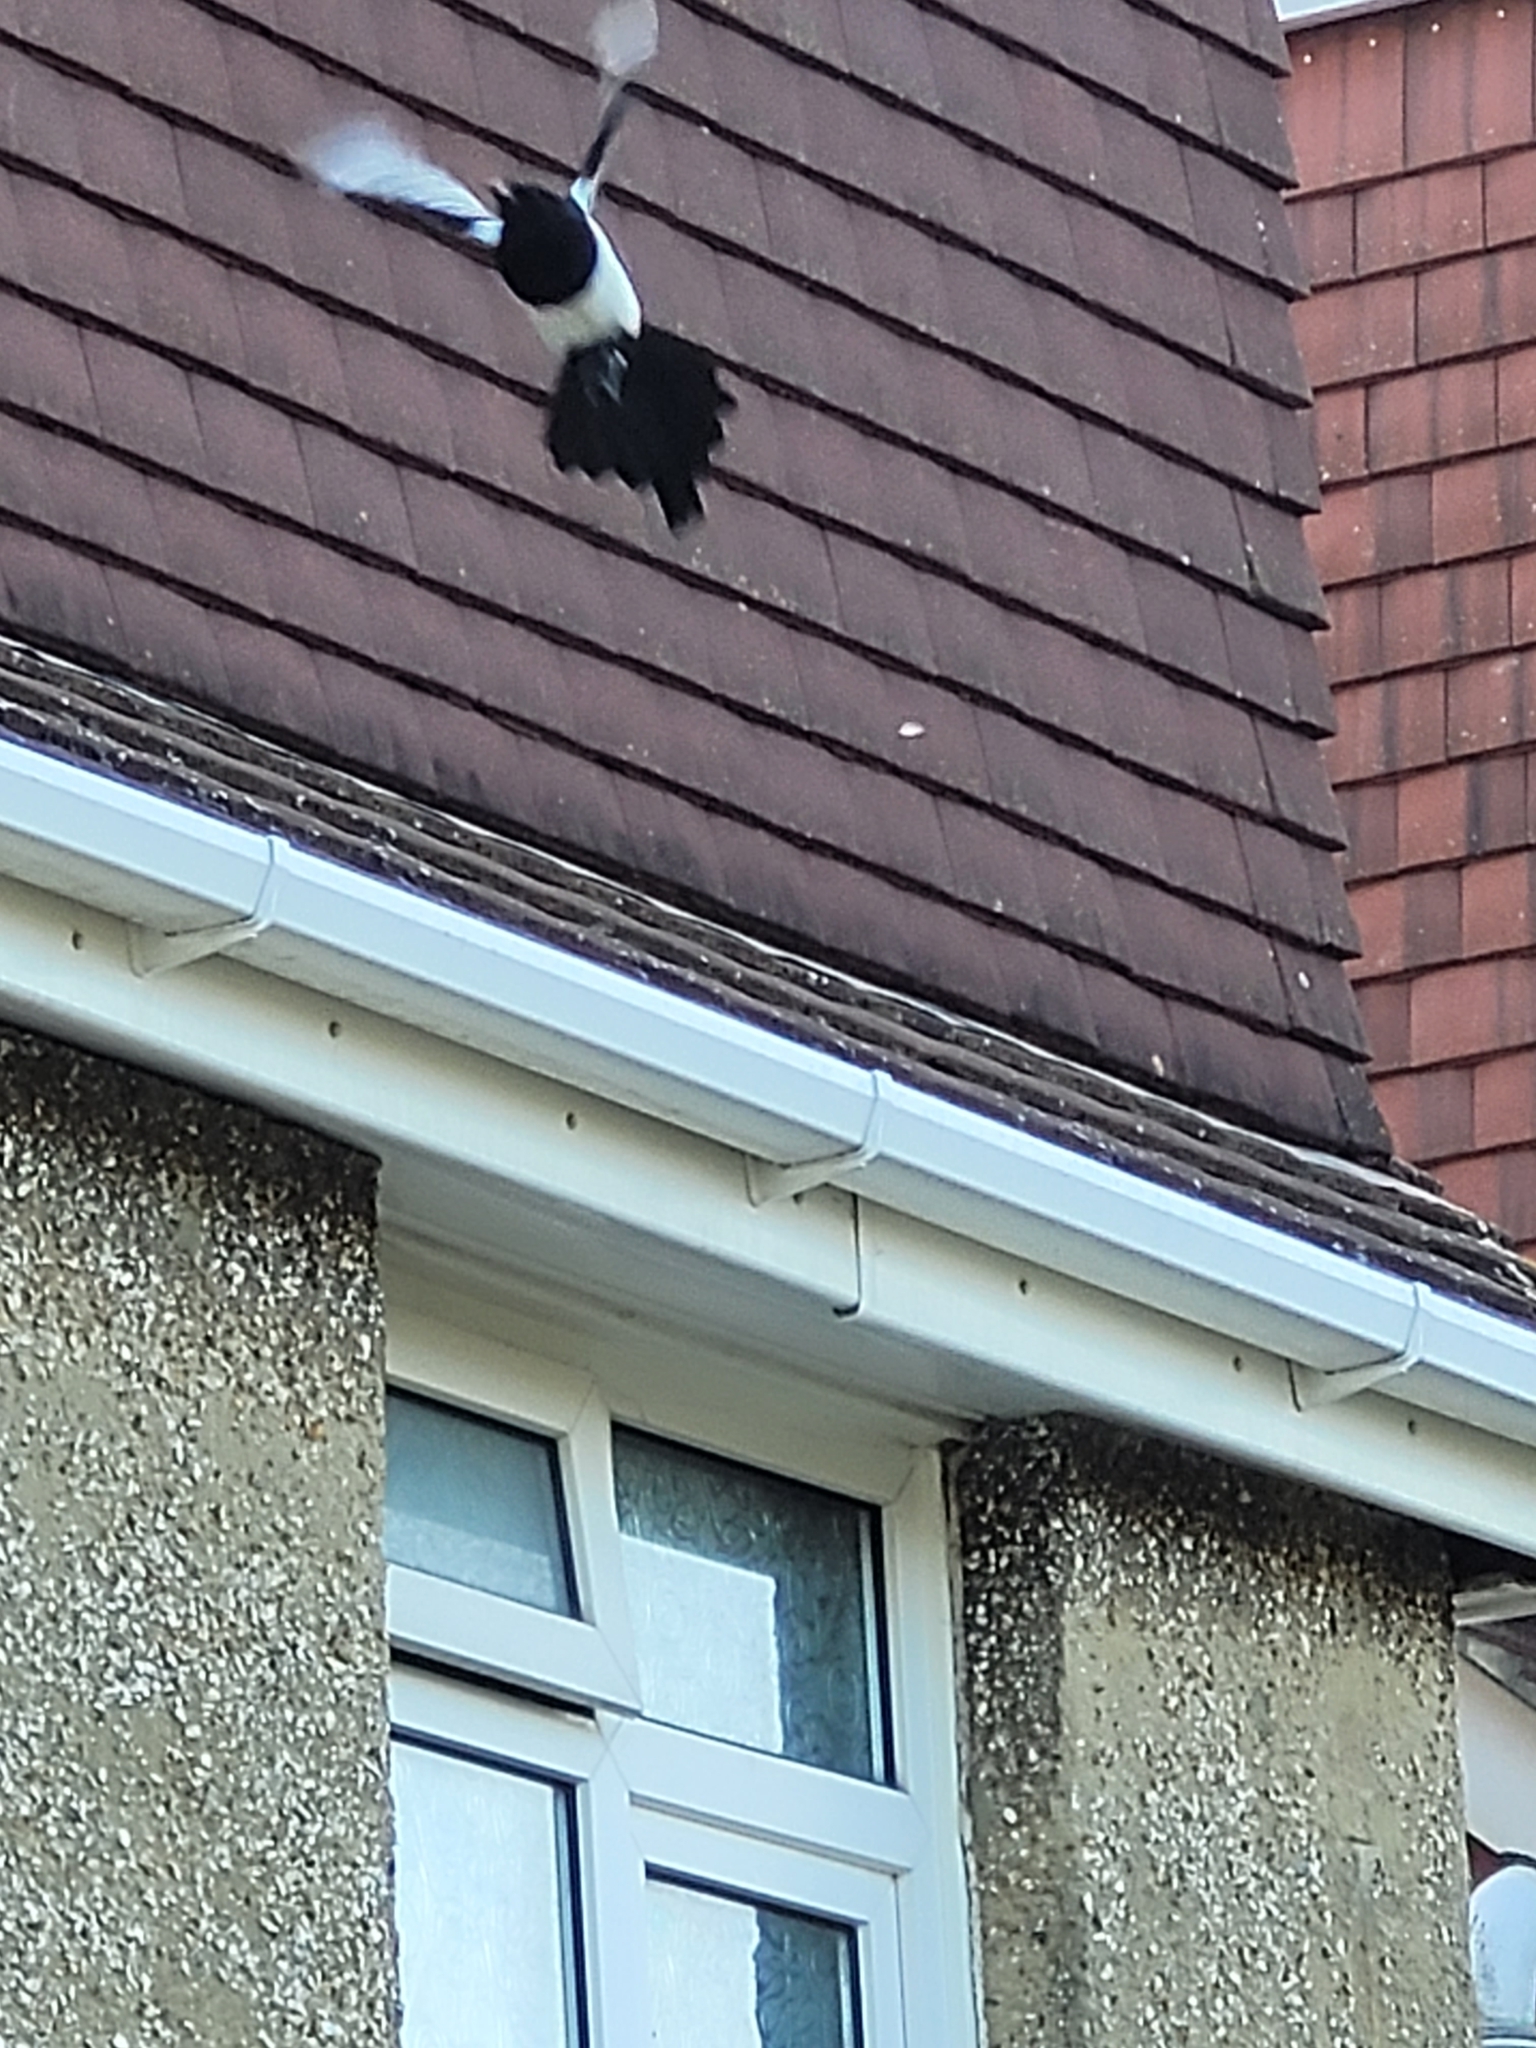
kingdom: Animalia
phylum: Chordata
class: Aves
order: Passeriformes
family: Corvidae
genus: Pica
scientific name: Pica pica
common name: Eurasian magpie
